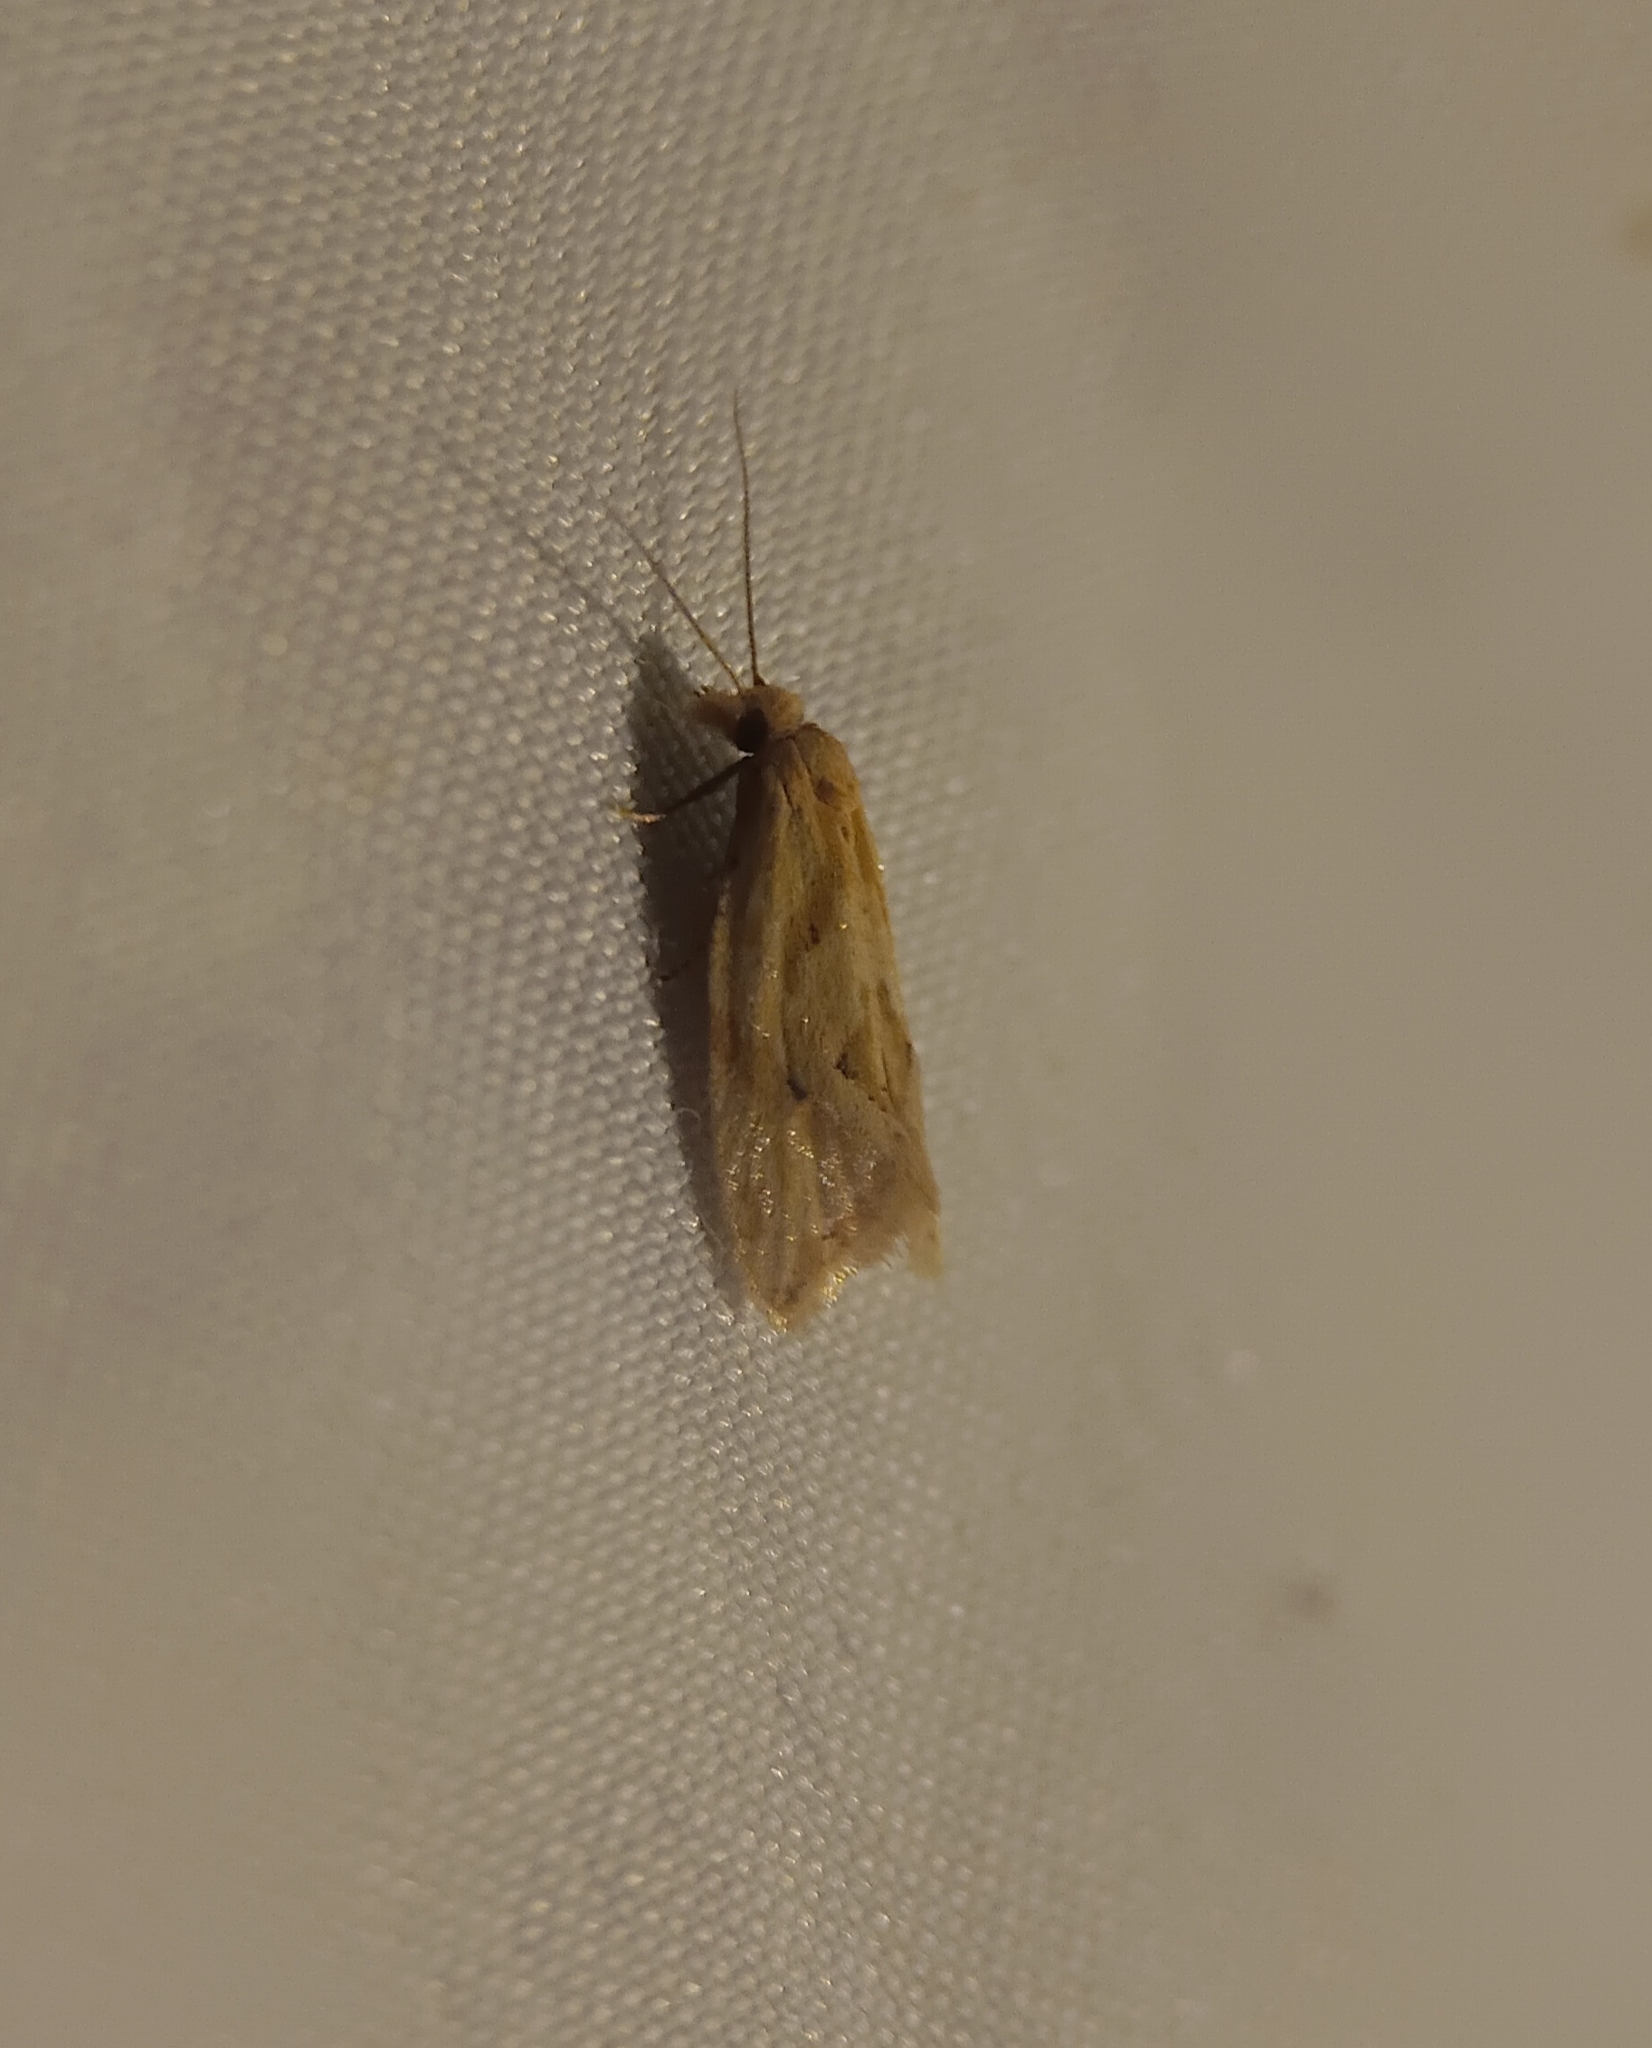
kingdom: Animalia
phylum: Arthropoda
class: Insecta
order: Lepidoptera
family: Tortricidae
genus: Aethes
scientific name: Aethes promptana
